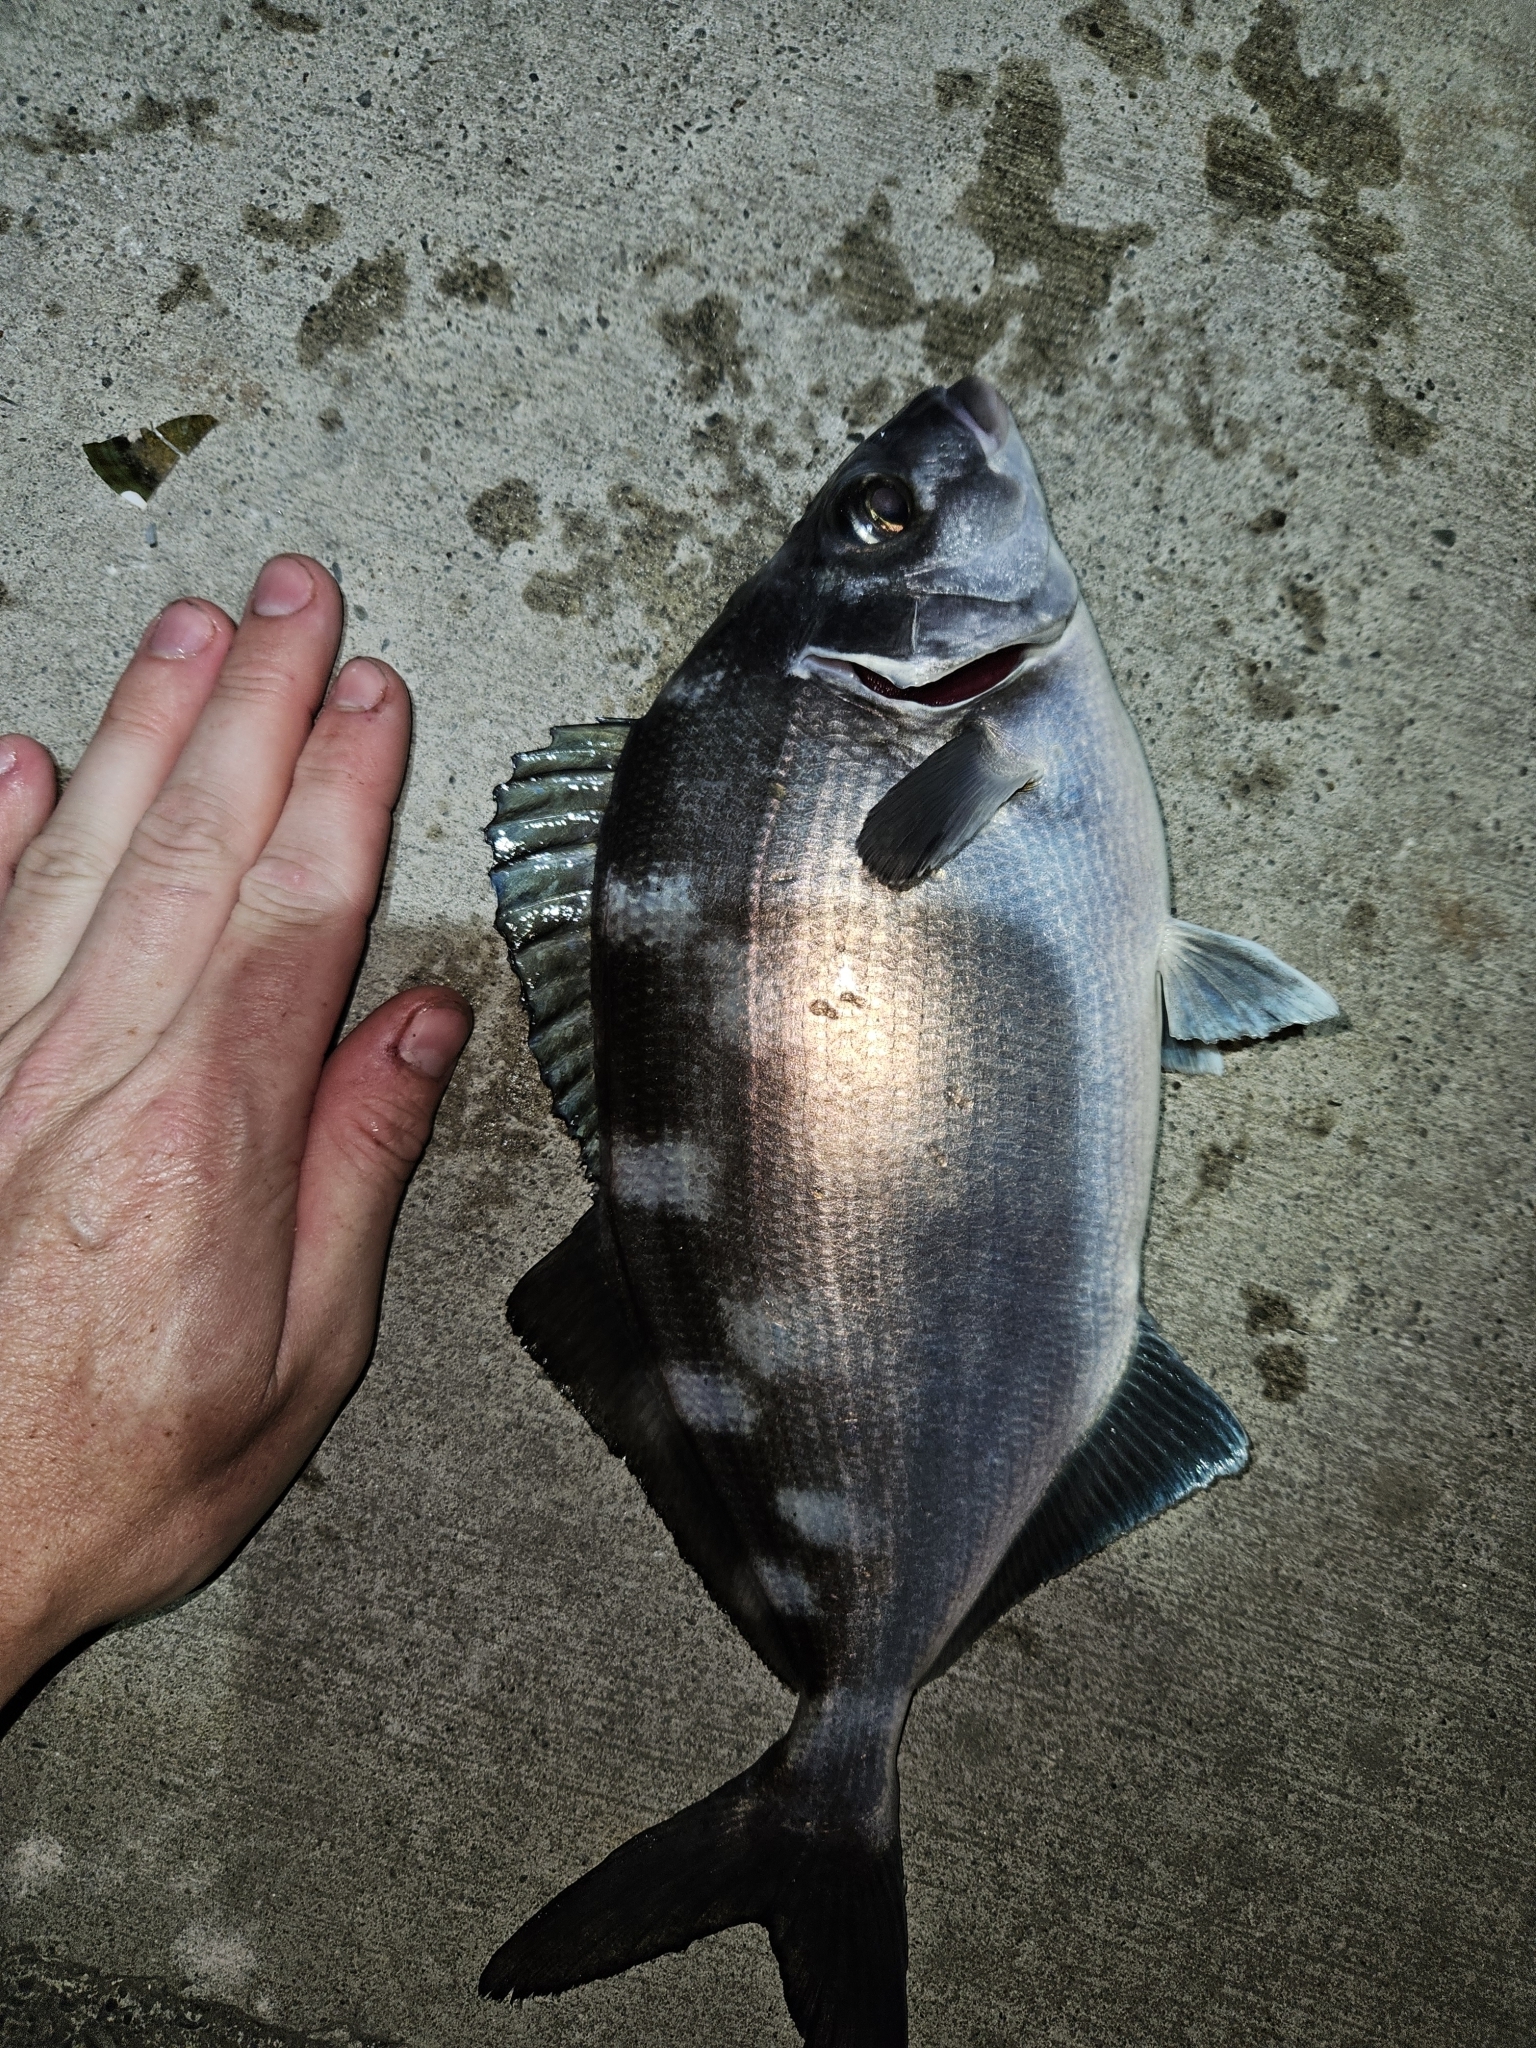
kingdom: Animalia
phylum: Chordata
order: Perciformes
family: Latridae
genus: Latridopsis
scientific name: Latridopsis ciliaris
